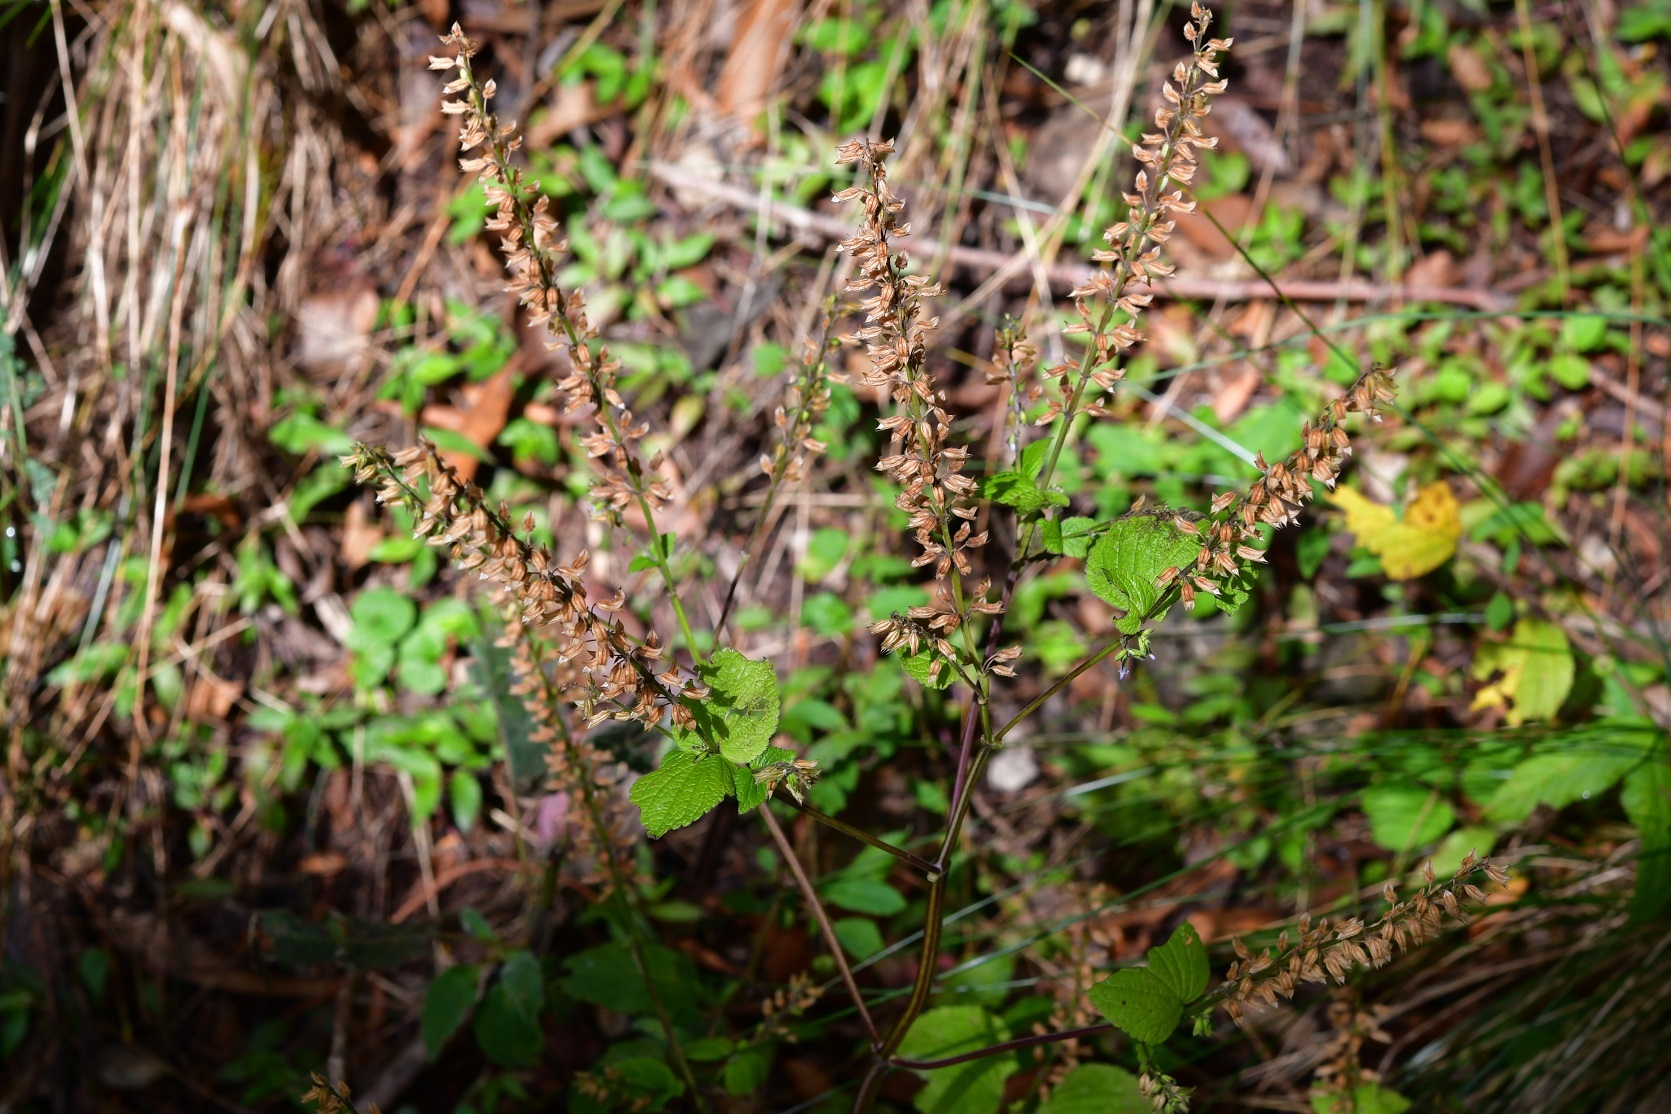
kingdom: Plantae
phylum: Tracheophyta
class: Magnoliopsida
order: Lamiales
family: Lamiaceae
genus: Salvia
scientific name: Salvia tiliifolia
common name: Lindenleaf sage
